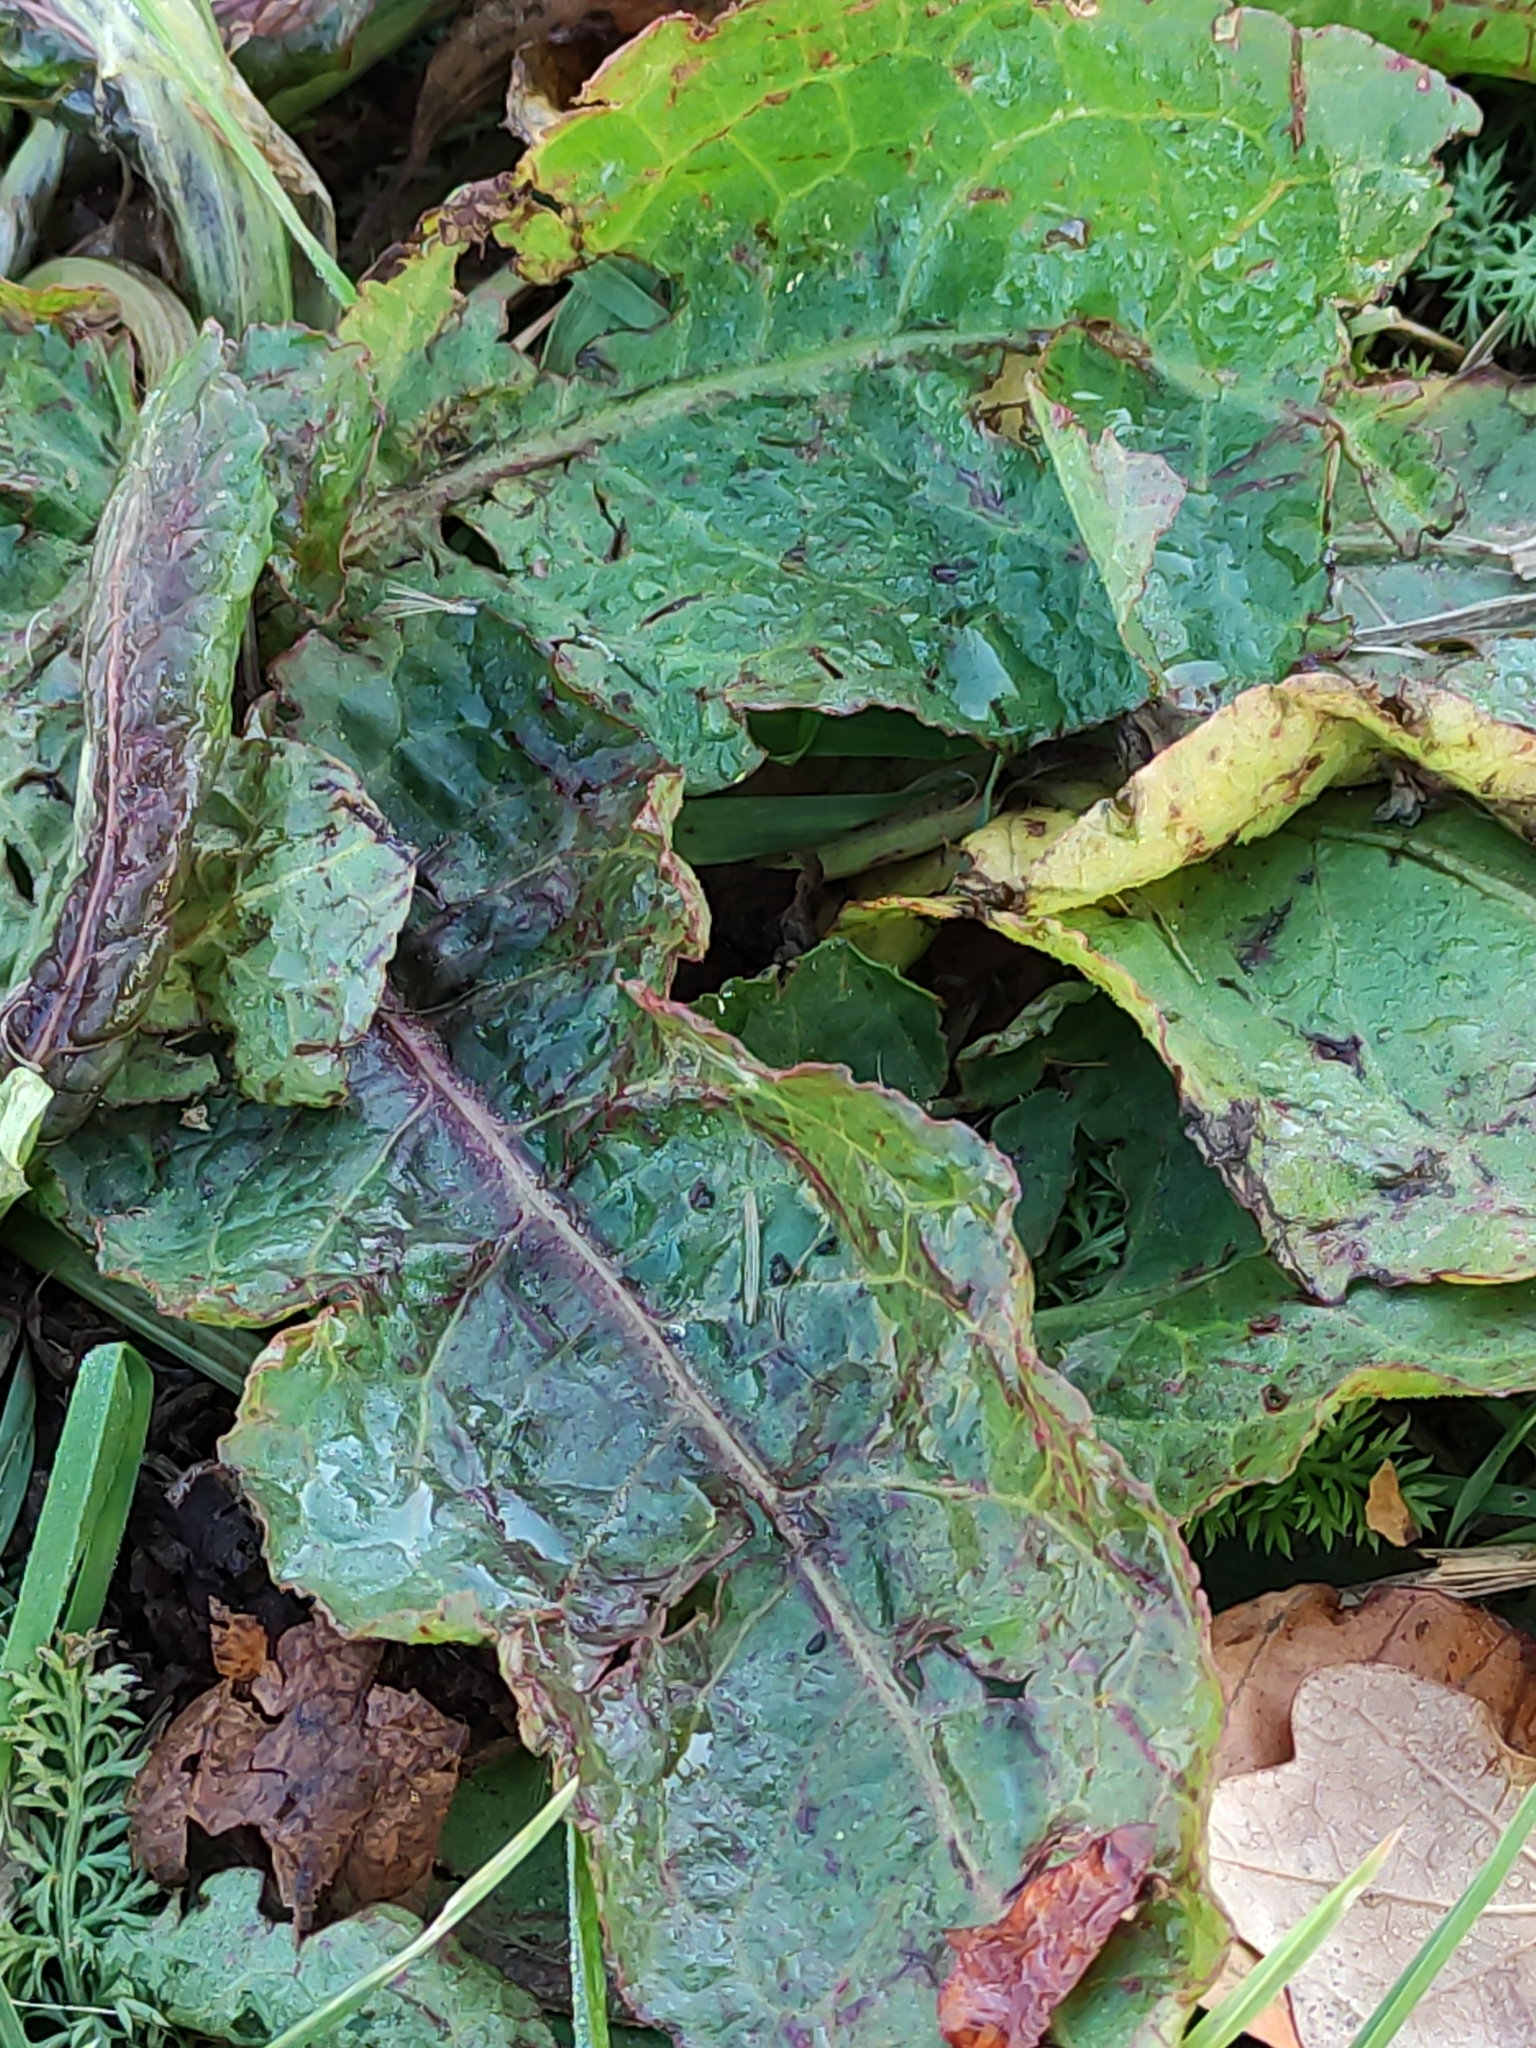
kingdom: Plantae
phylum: Tracheophyta
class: Magnoliopsida
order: Caryophyllales
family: Polygonaceae
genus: Rumex
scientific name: Rumex obtusifolius
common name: Bitter dock
